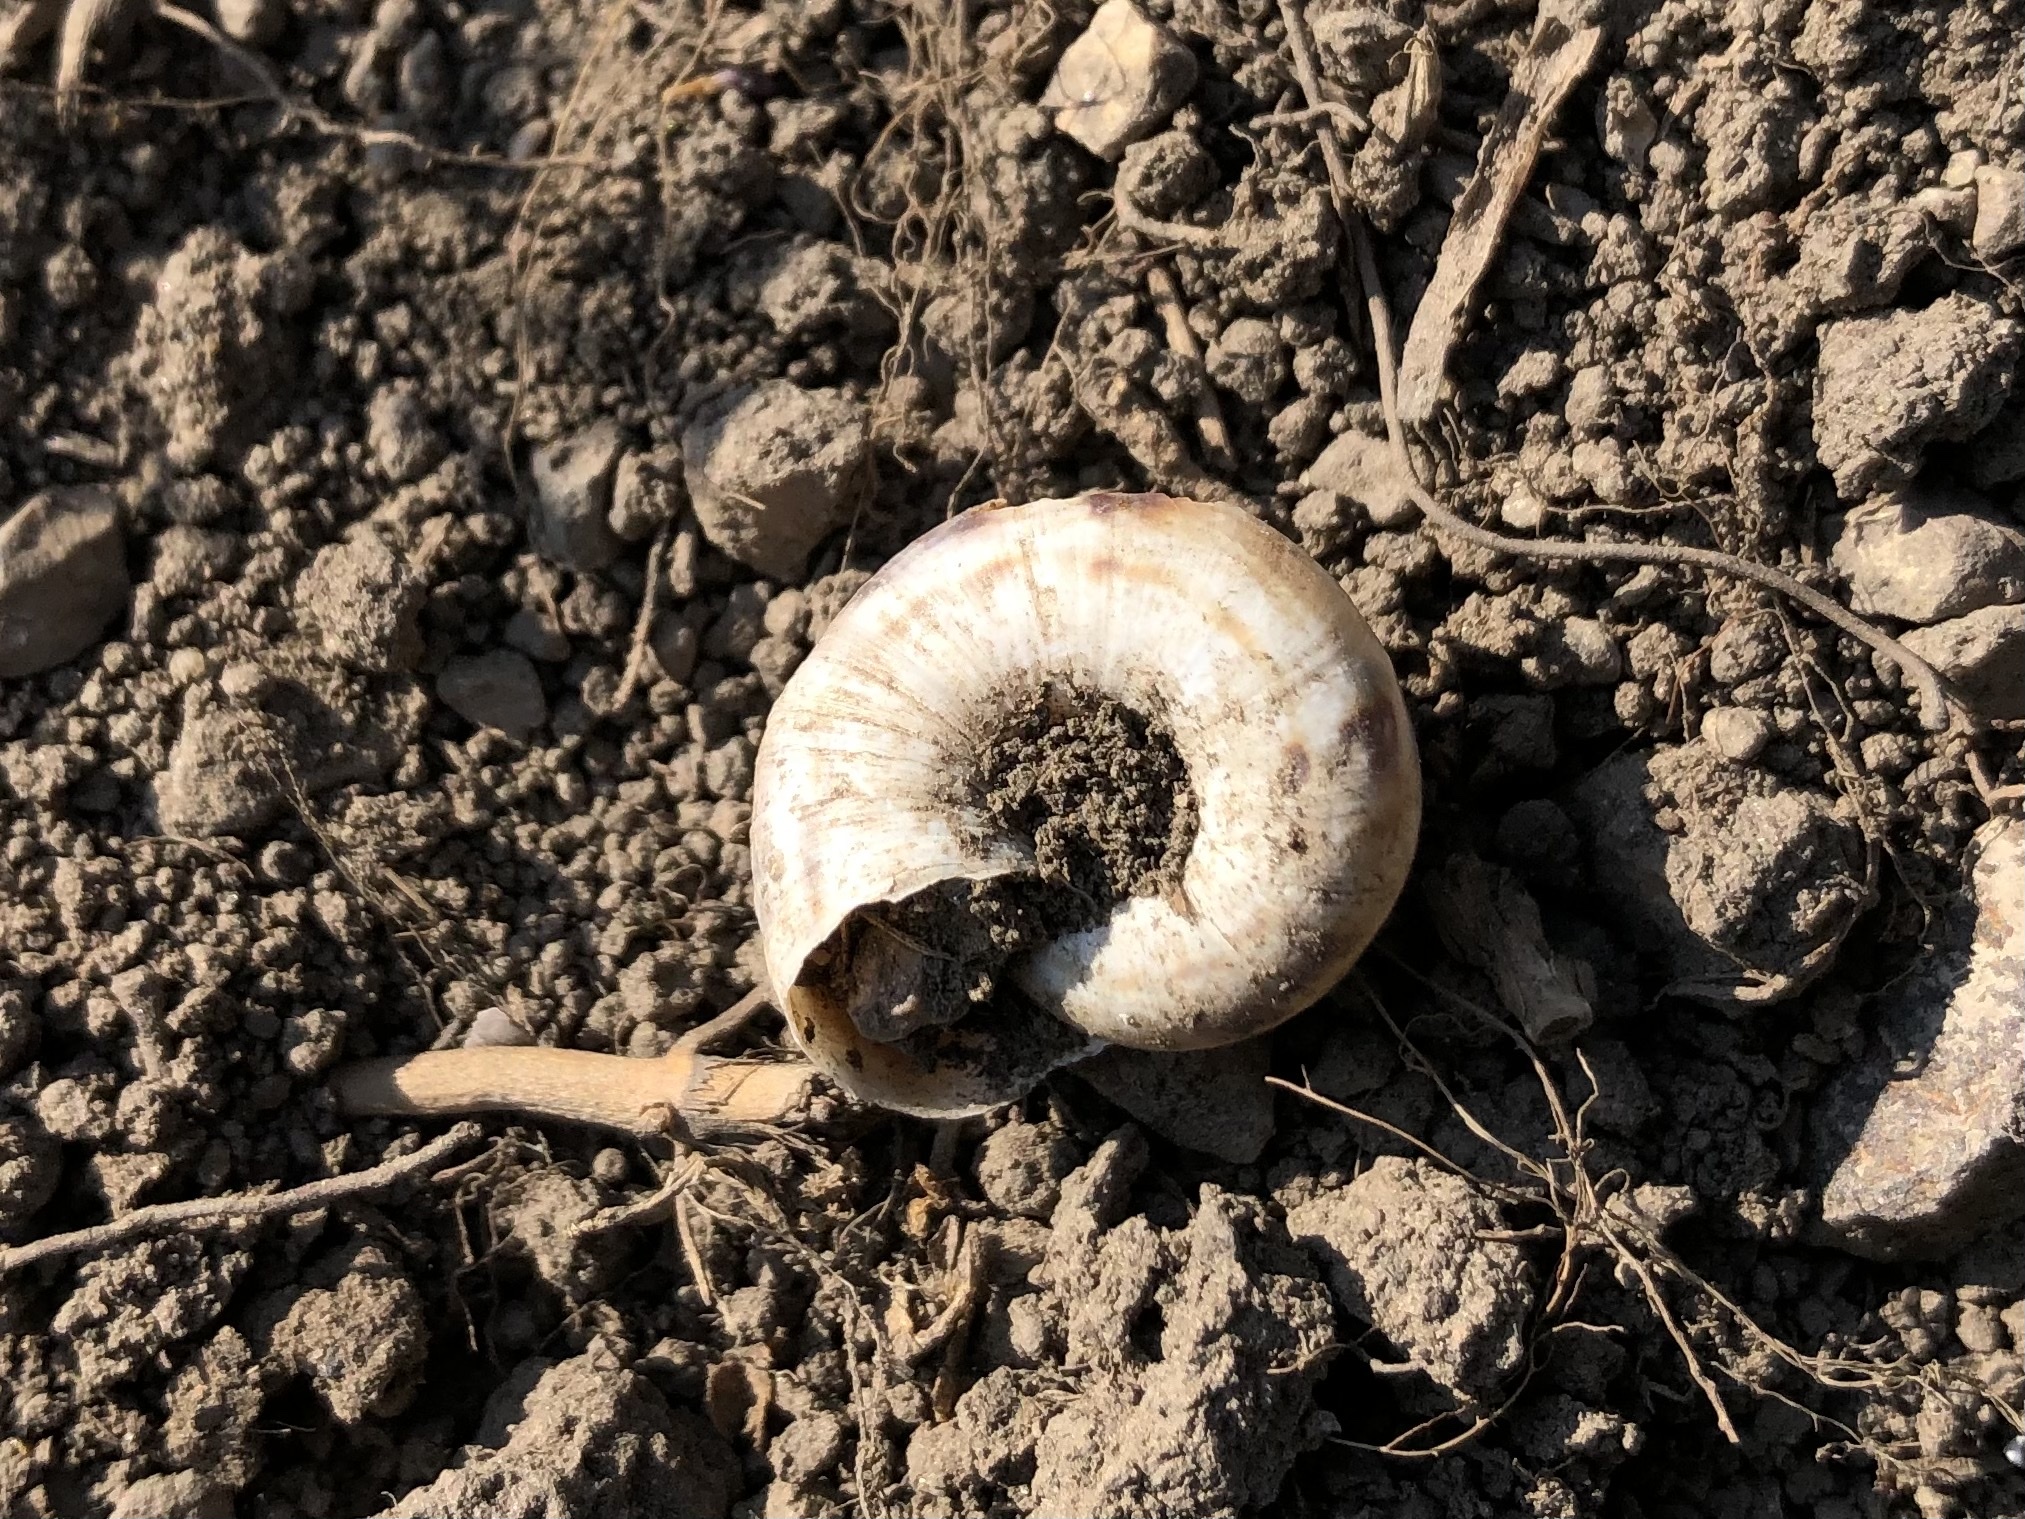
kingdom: Animalia
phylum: Mollusca
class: Gastropoda
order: Stylommatophora
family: Geomitridae
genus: Xerolenta
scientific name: Xerolenta obvia
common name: White heath snail
